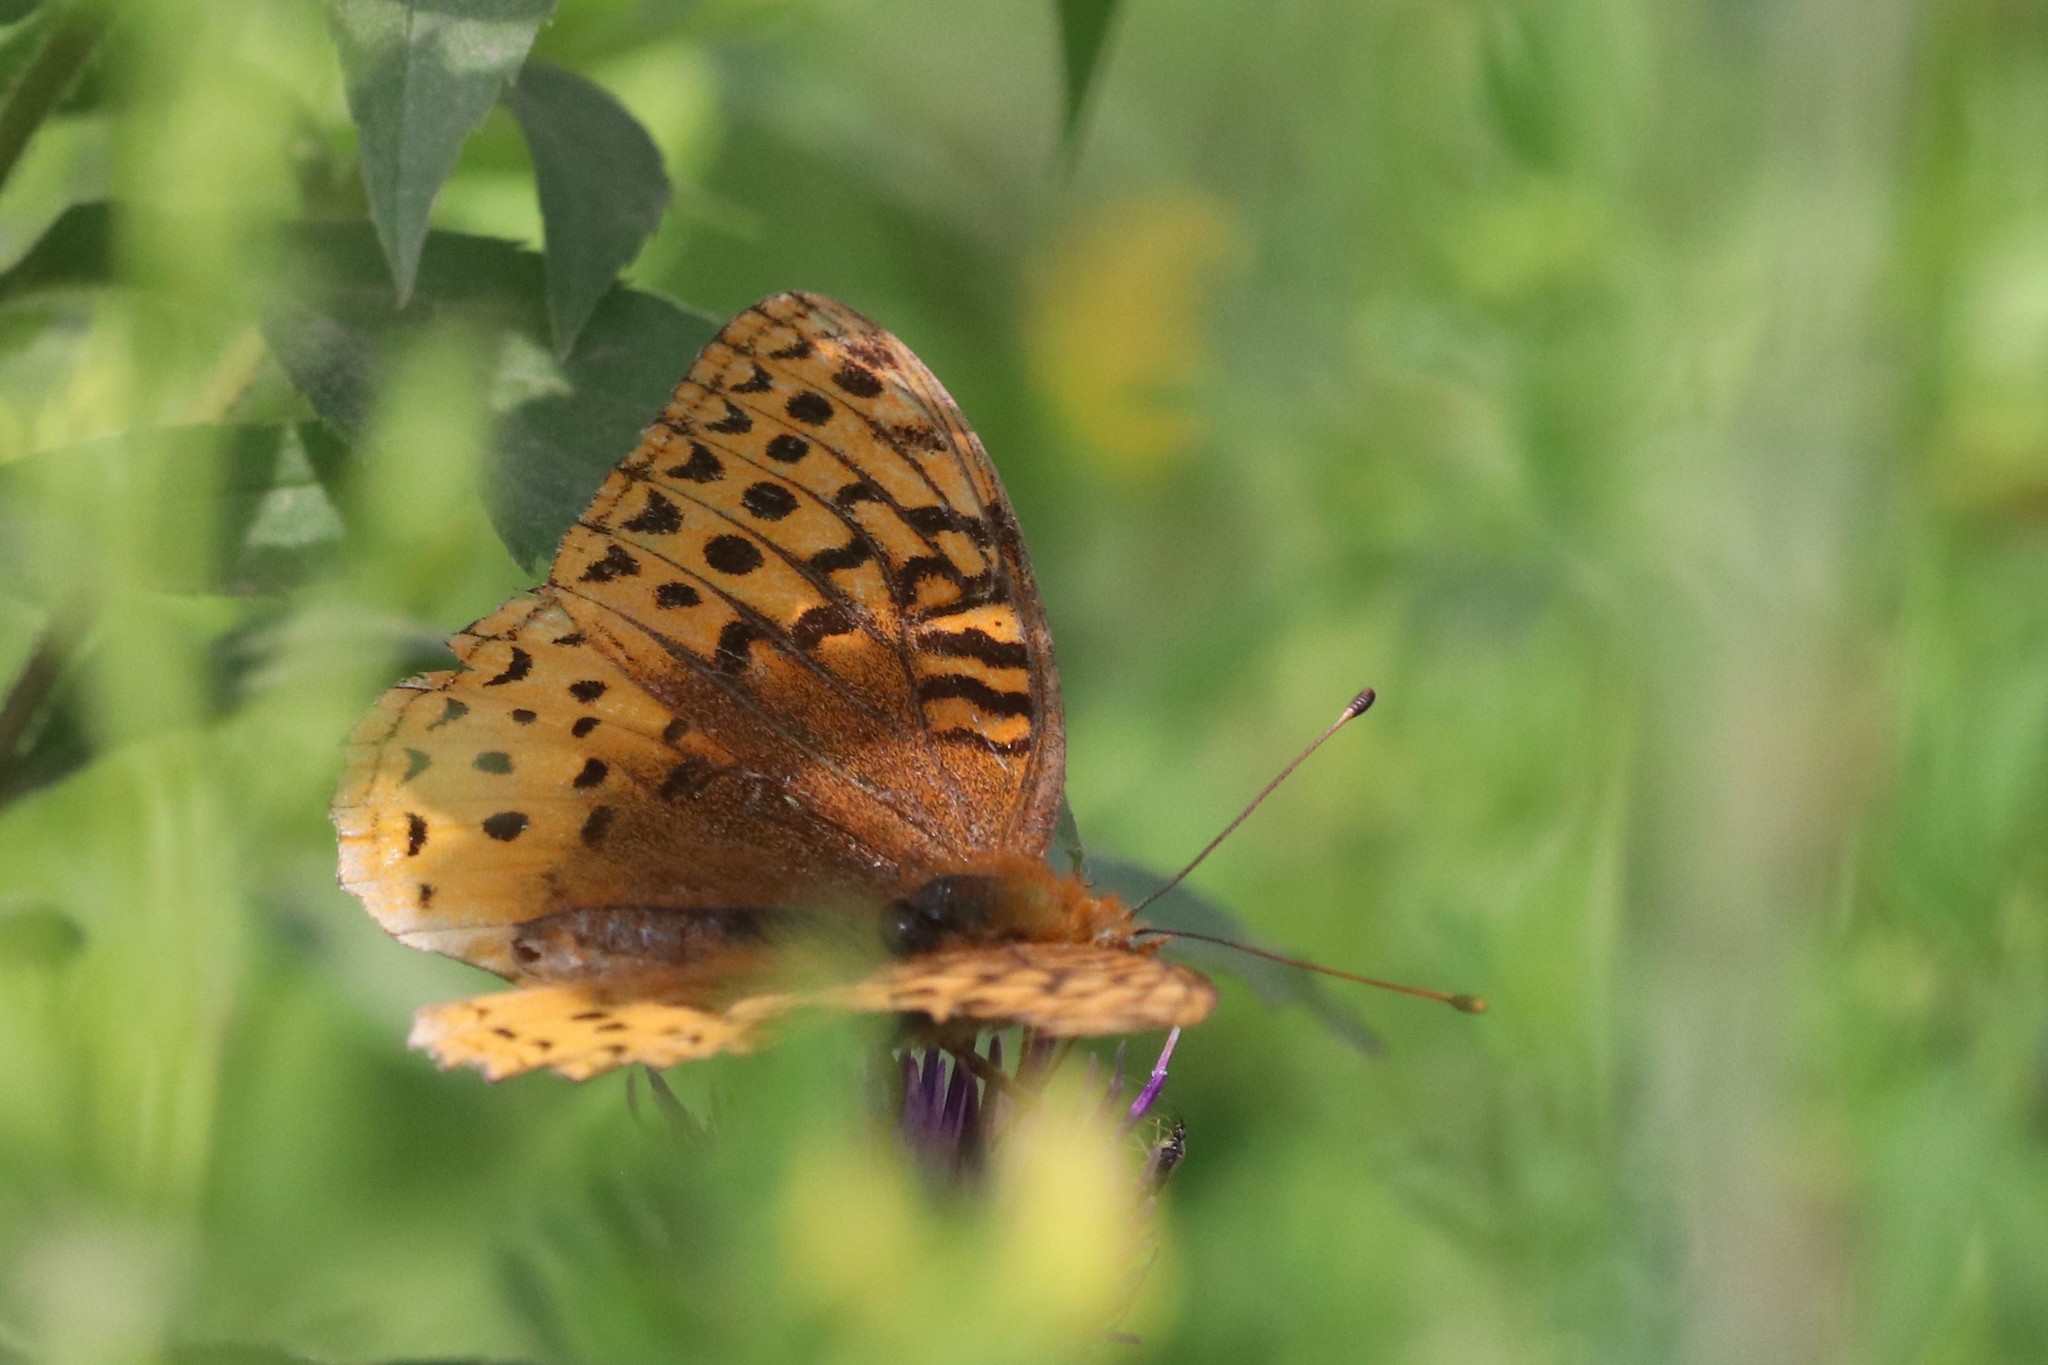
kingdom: Animalia
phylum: Arthropoda
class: Insecta
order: Lepidoptera
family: Nymphalidae
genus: Speyeria
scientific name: Speyeria cybele
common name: Great spangled fritillary
